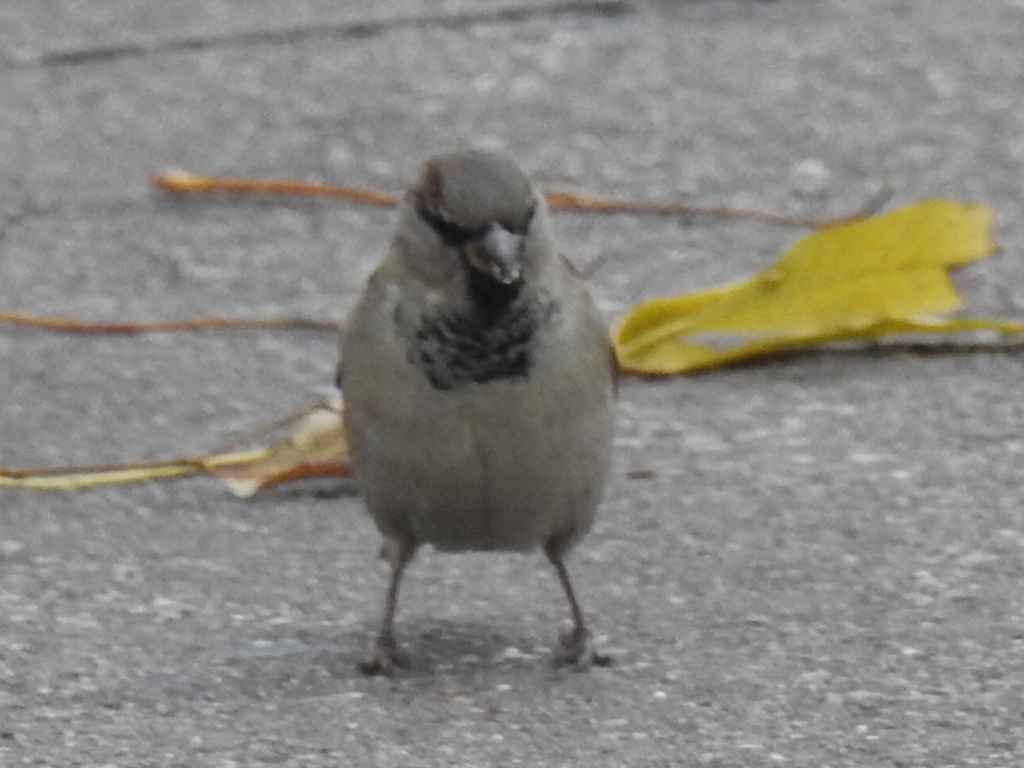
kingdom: Animalia
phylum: Chordata
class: Aves
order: Passeriformes
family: Passeridae
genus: Passer
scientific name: Passer domesticus
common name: House sparrow
